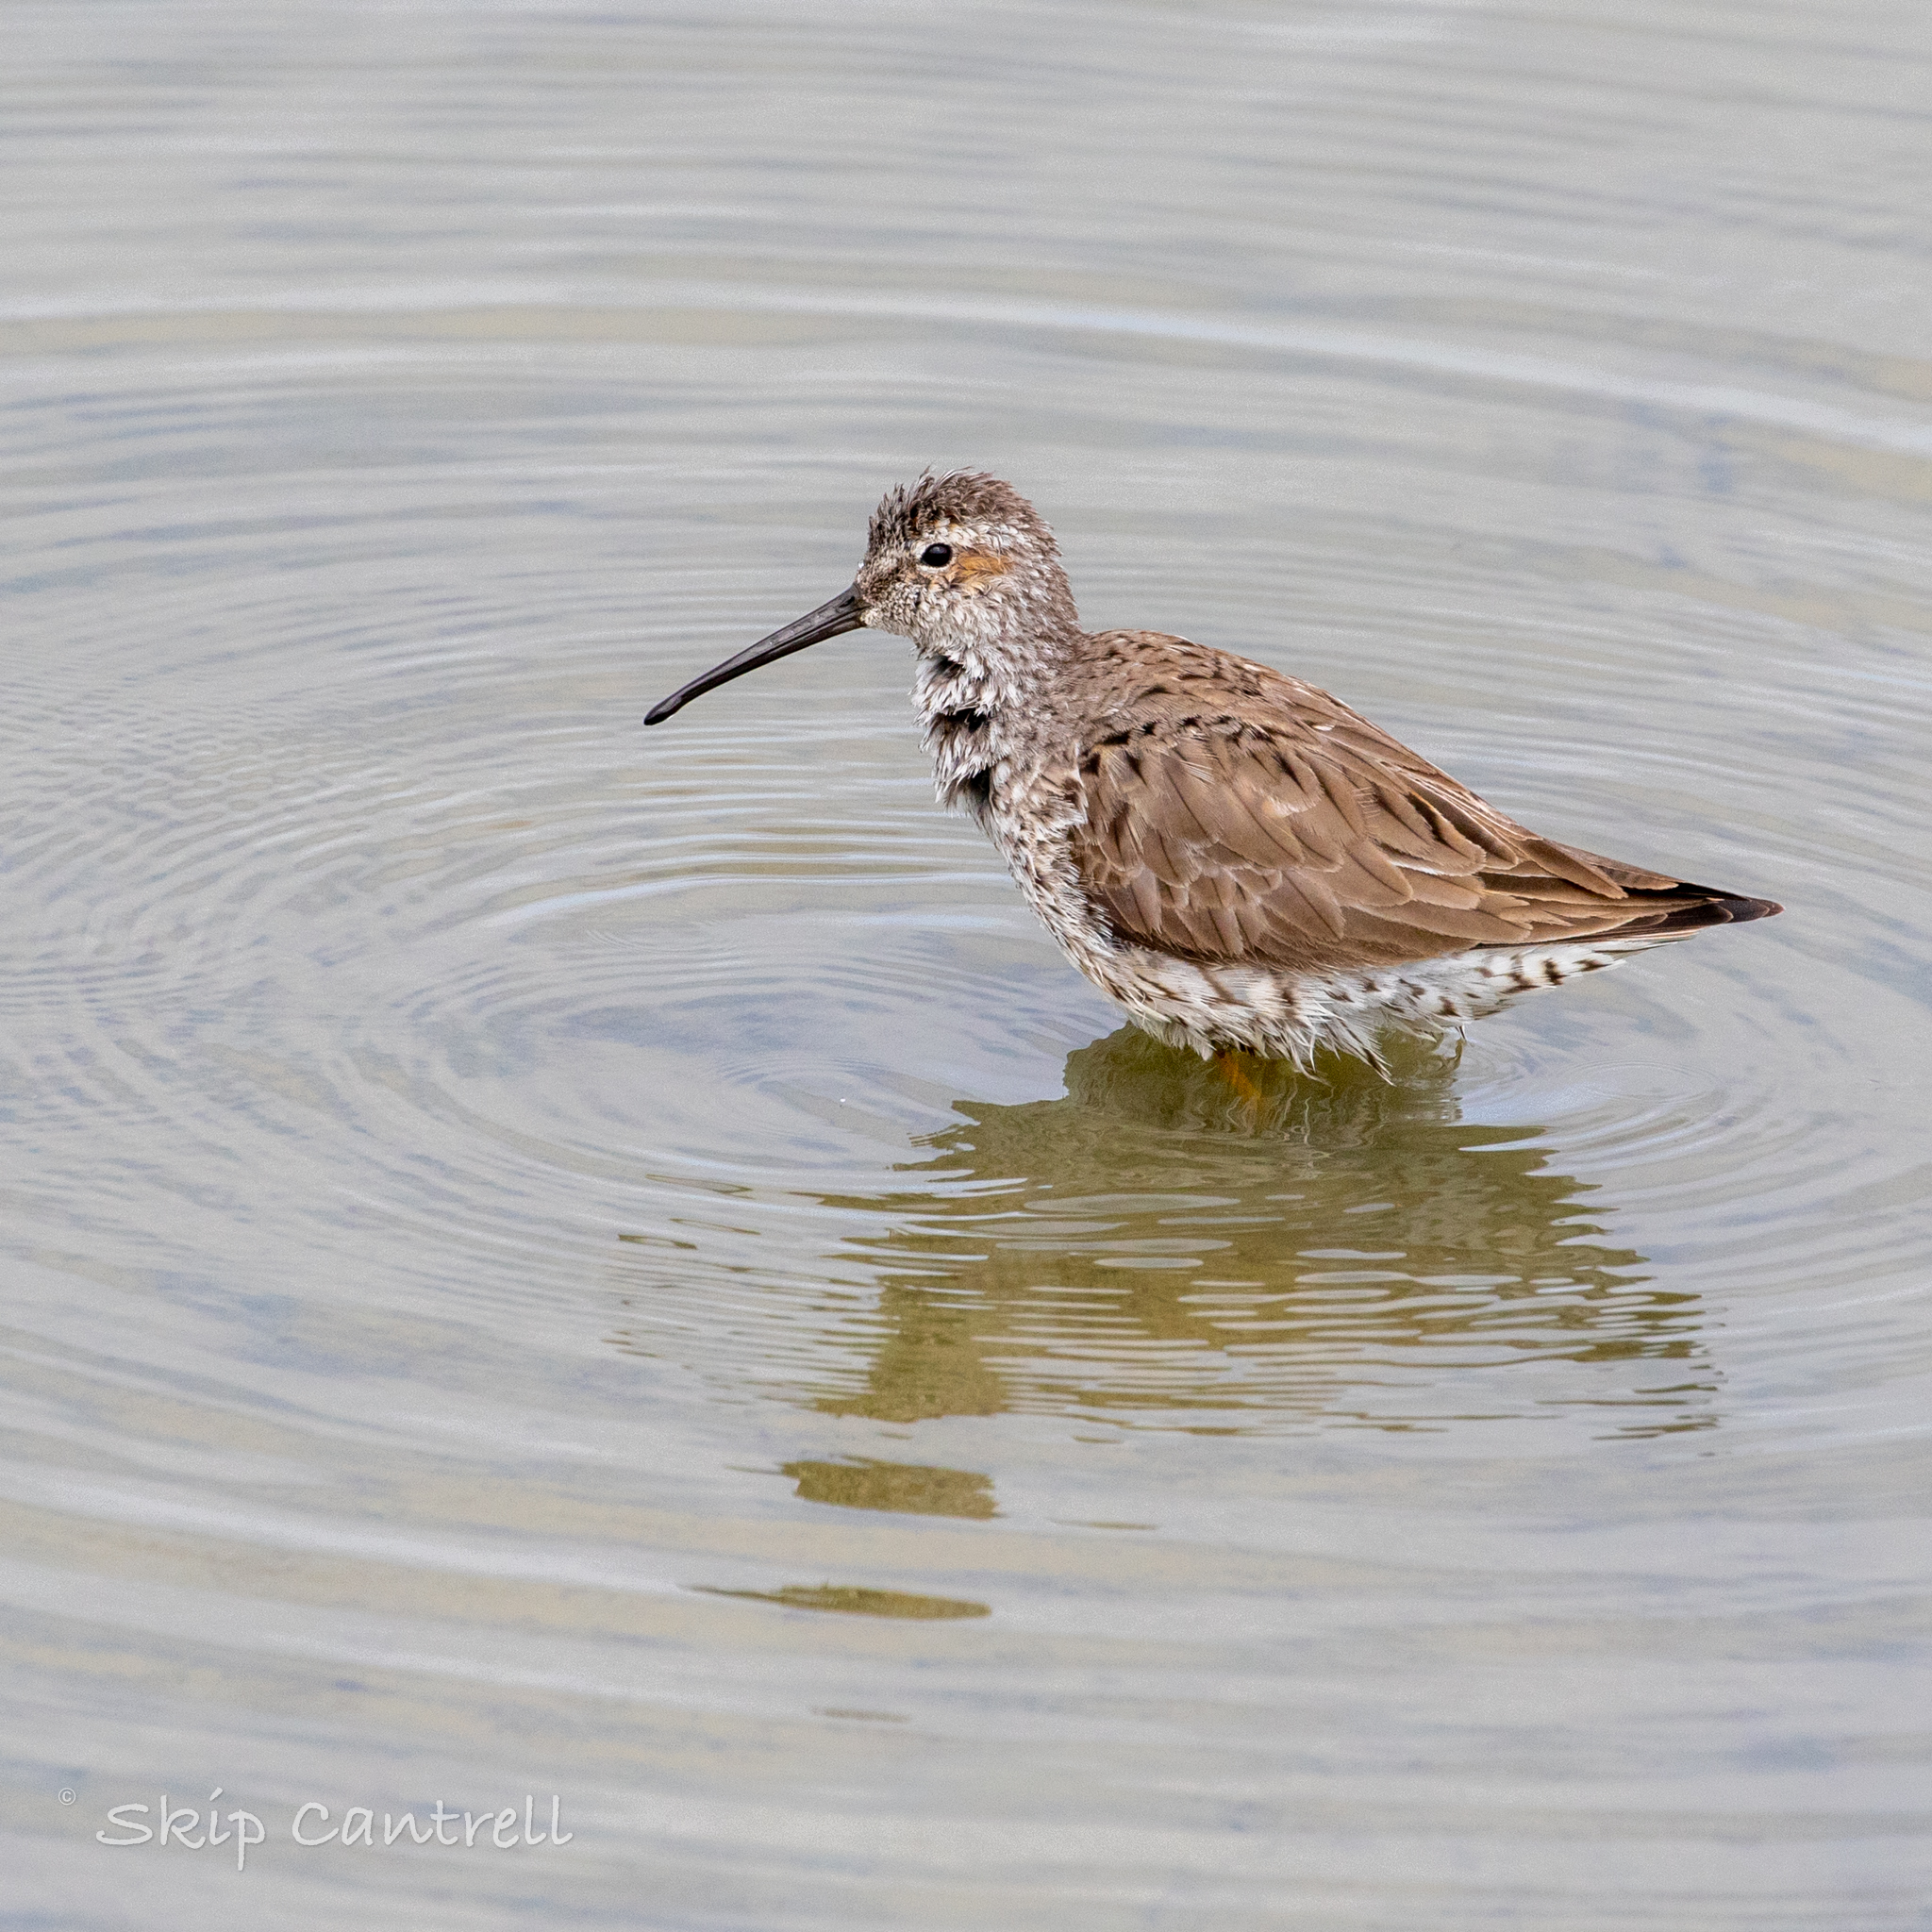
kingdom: Animalia
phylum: Chordata
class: Aves
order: Charadriiformes
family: Scolopacidae
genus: Calidris
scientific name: Calidris himantopus
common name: Stilt sandpiper
